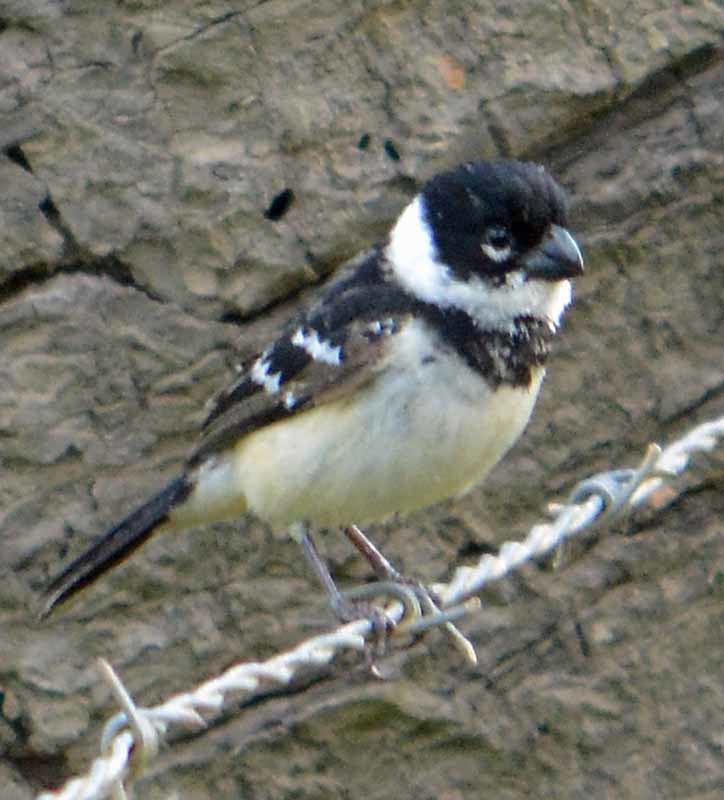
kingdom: Animalia
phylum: Chordata
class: Aves
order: Passeriformes
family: Thraupidae
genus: Sporophila
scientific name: Sporophila morelleti
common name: Morelet's seedeater
